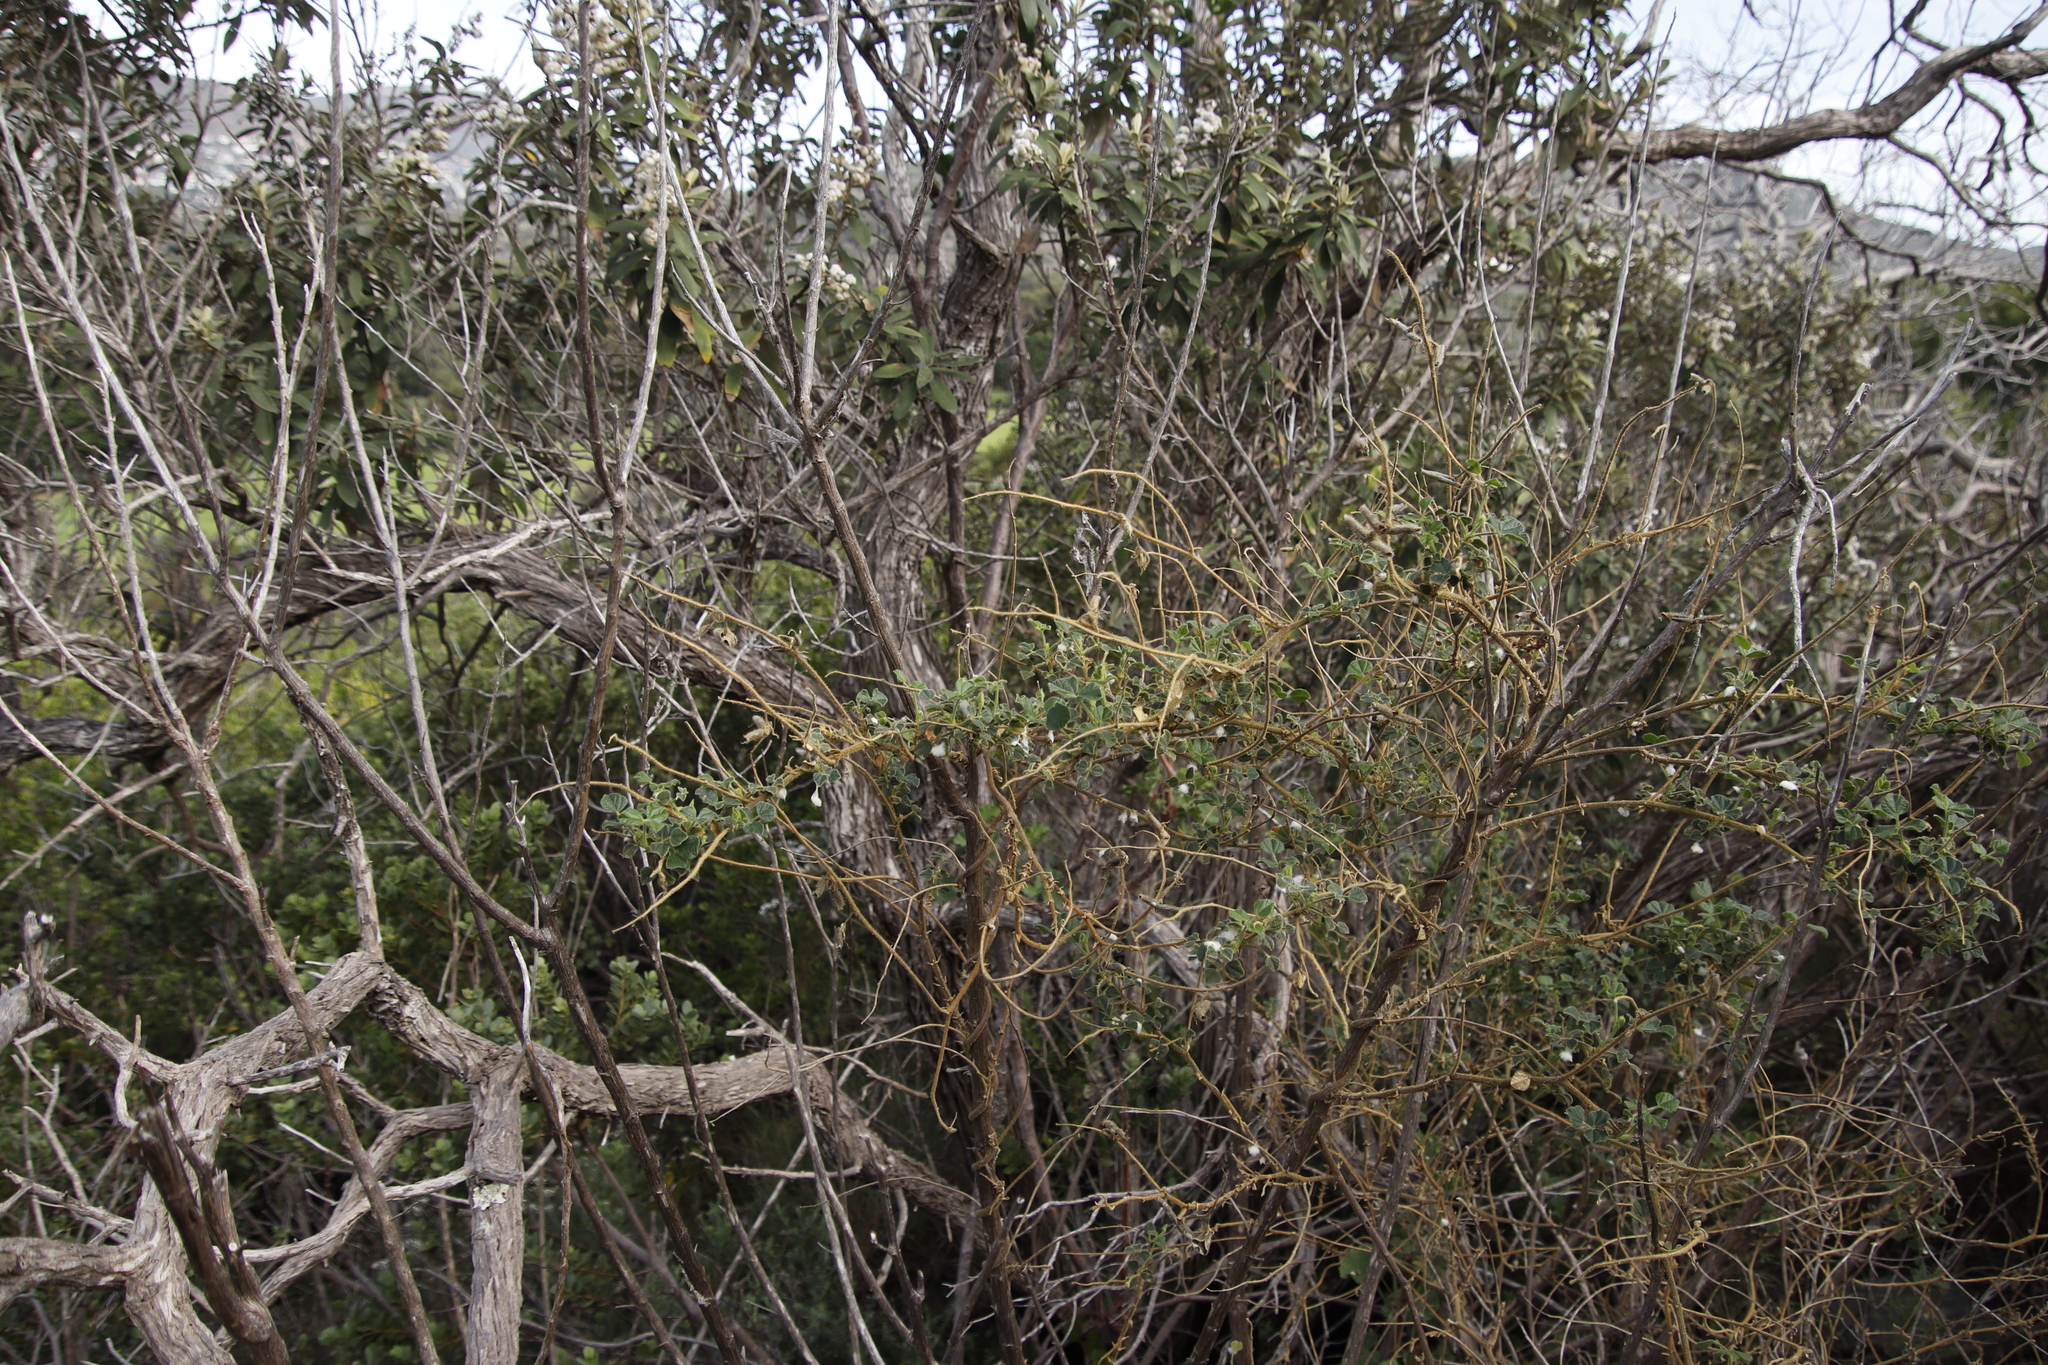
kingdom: Plantae
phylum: Tracheophyta
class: Magnoliopsida
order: Fabales
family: Fabaceae
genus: Bolusafra
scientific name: Bolusafra bituminosa
